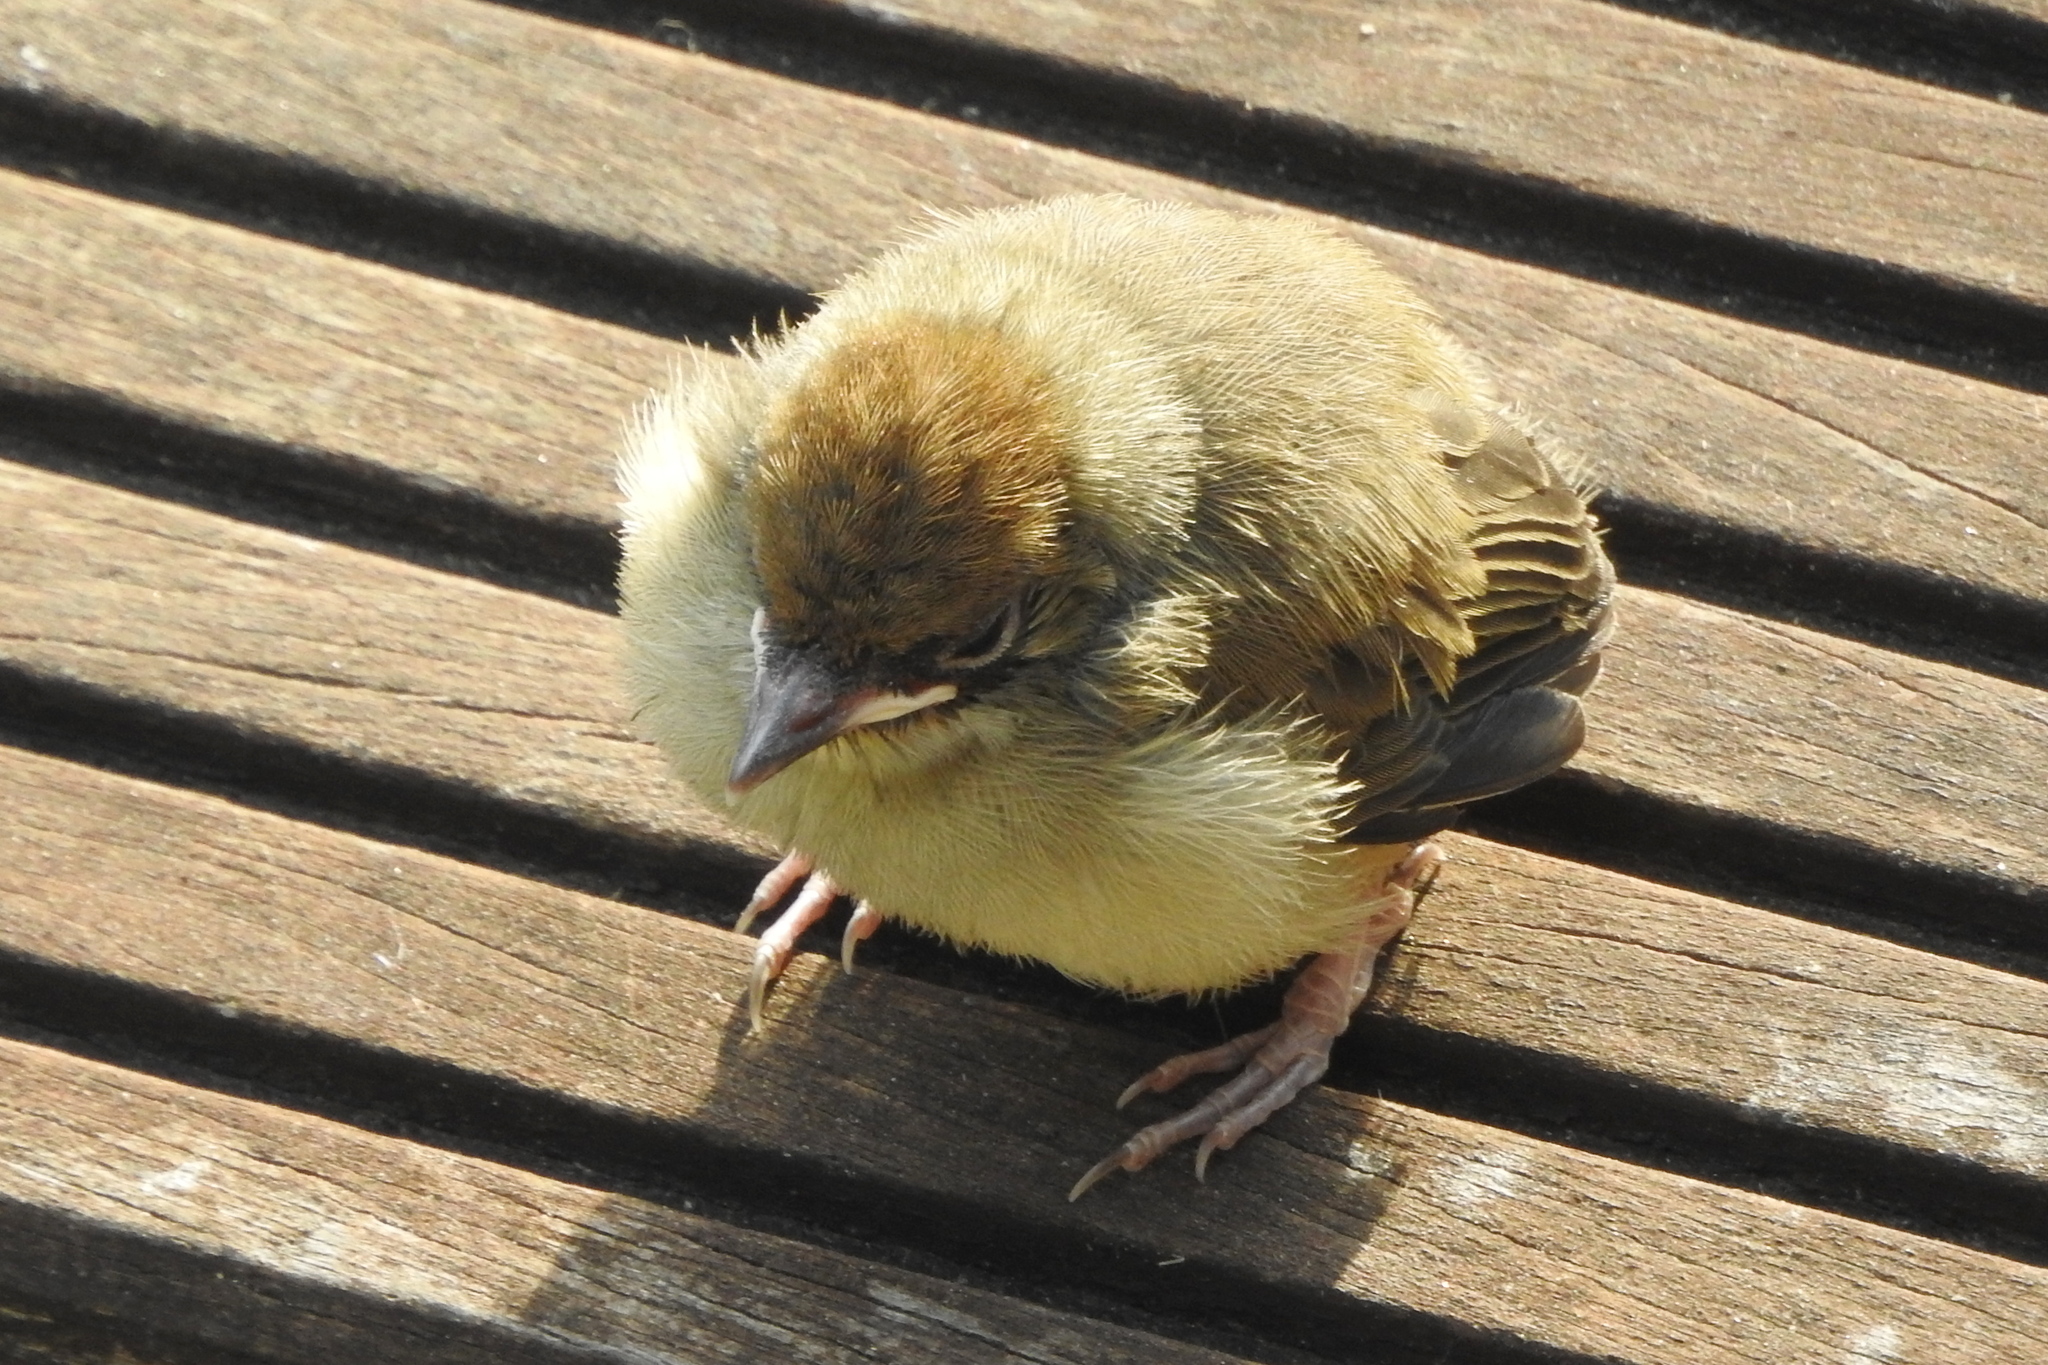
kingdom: Animalia
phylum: Chordata
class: Aves
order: Passeriformes
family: Sylviidae
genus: Sylvia
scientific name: Sylvia atricapilla
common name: Eurasian blackcap
